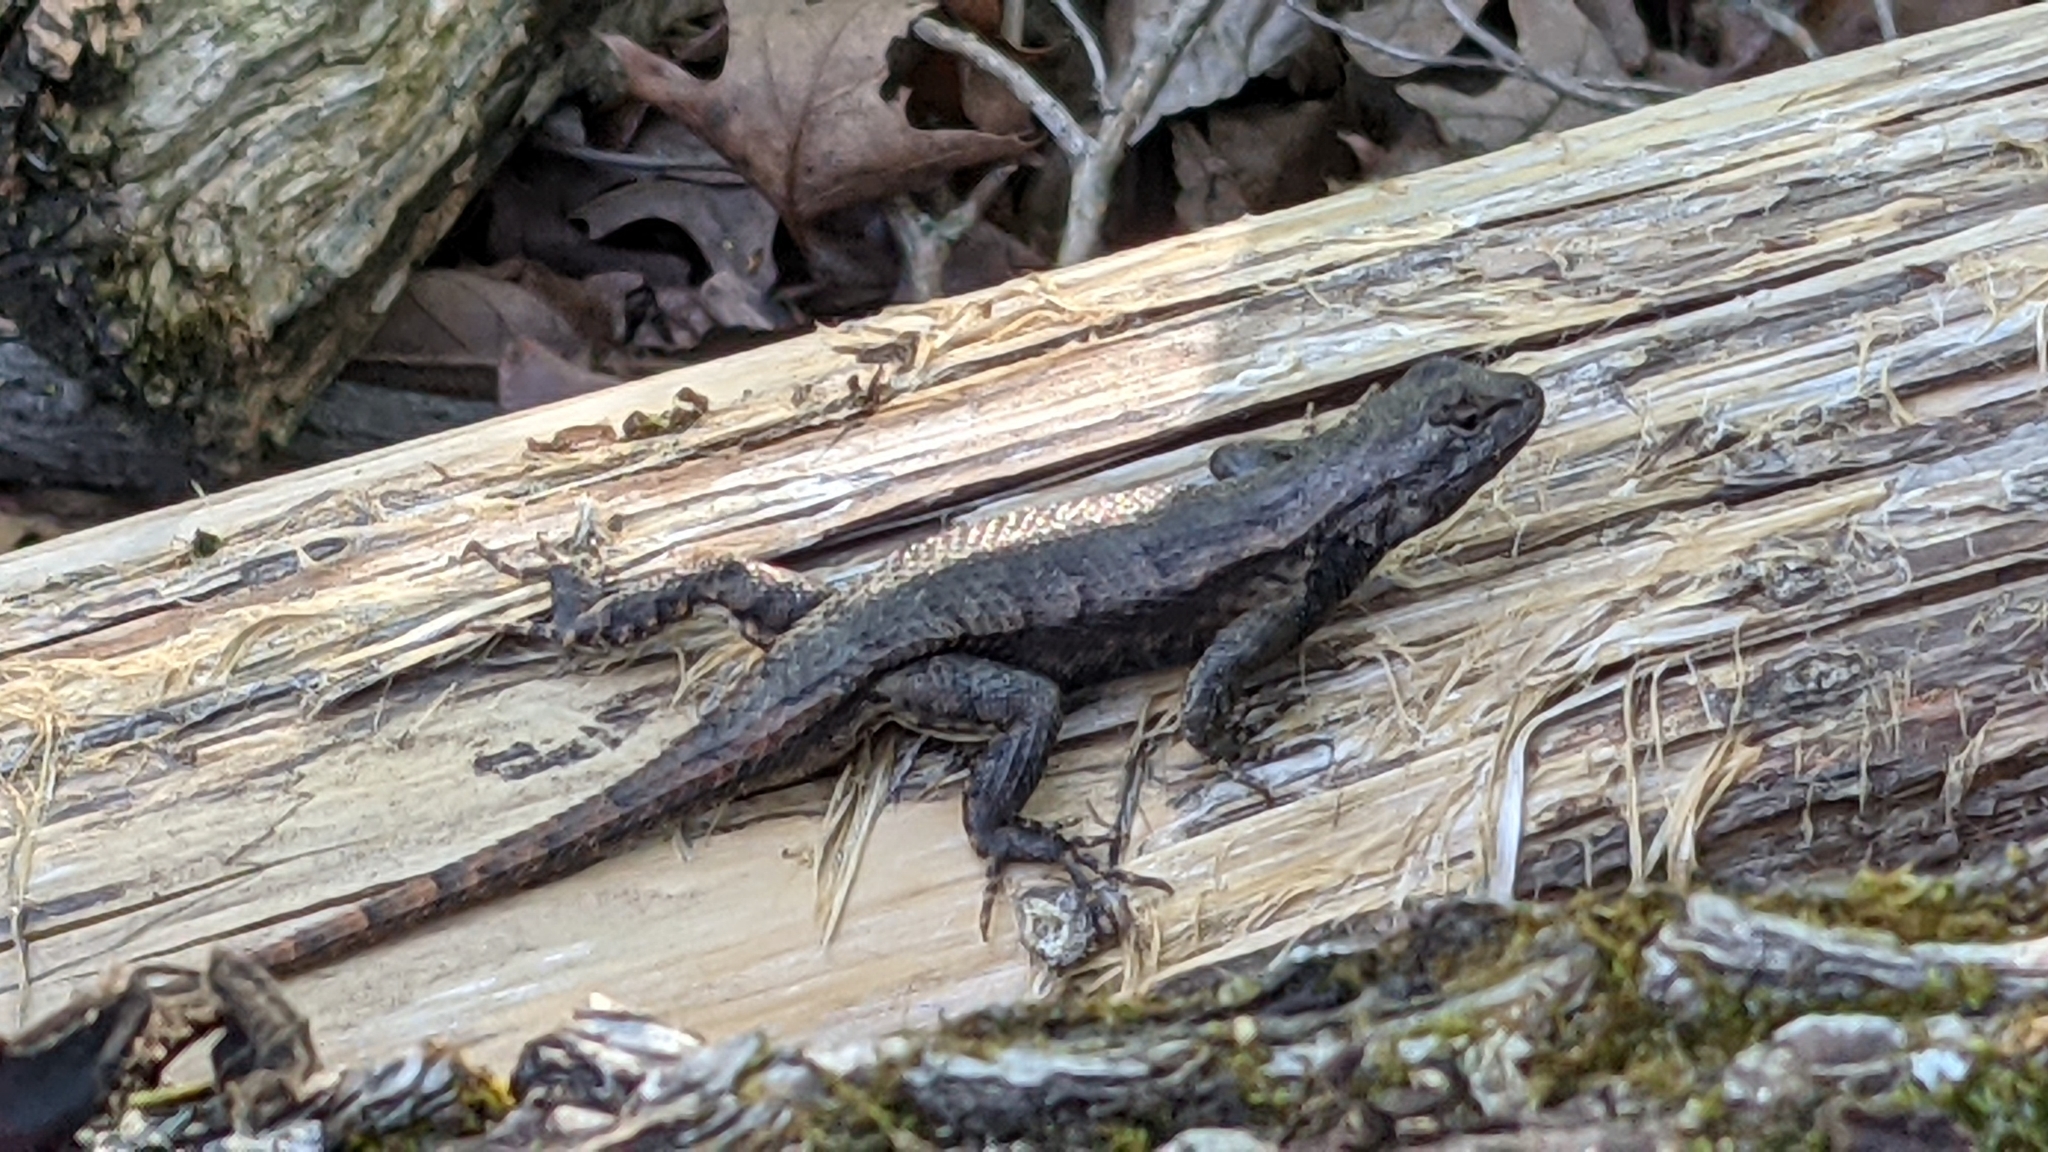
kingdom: Animalia
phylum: Chordata
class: Squamata
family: Phrynosomatidae
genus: Sceloporus
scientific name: Sceloporus consobrinus
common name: Southern prairie lizard
